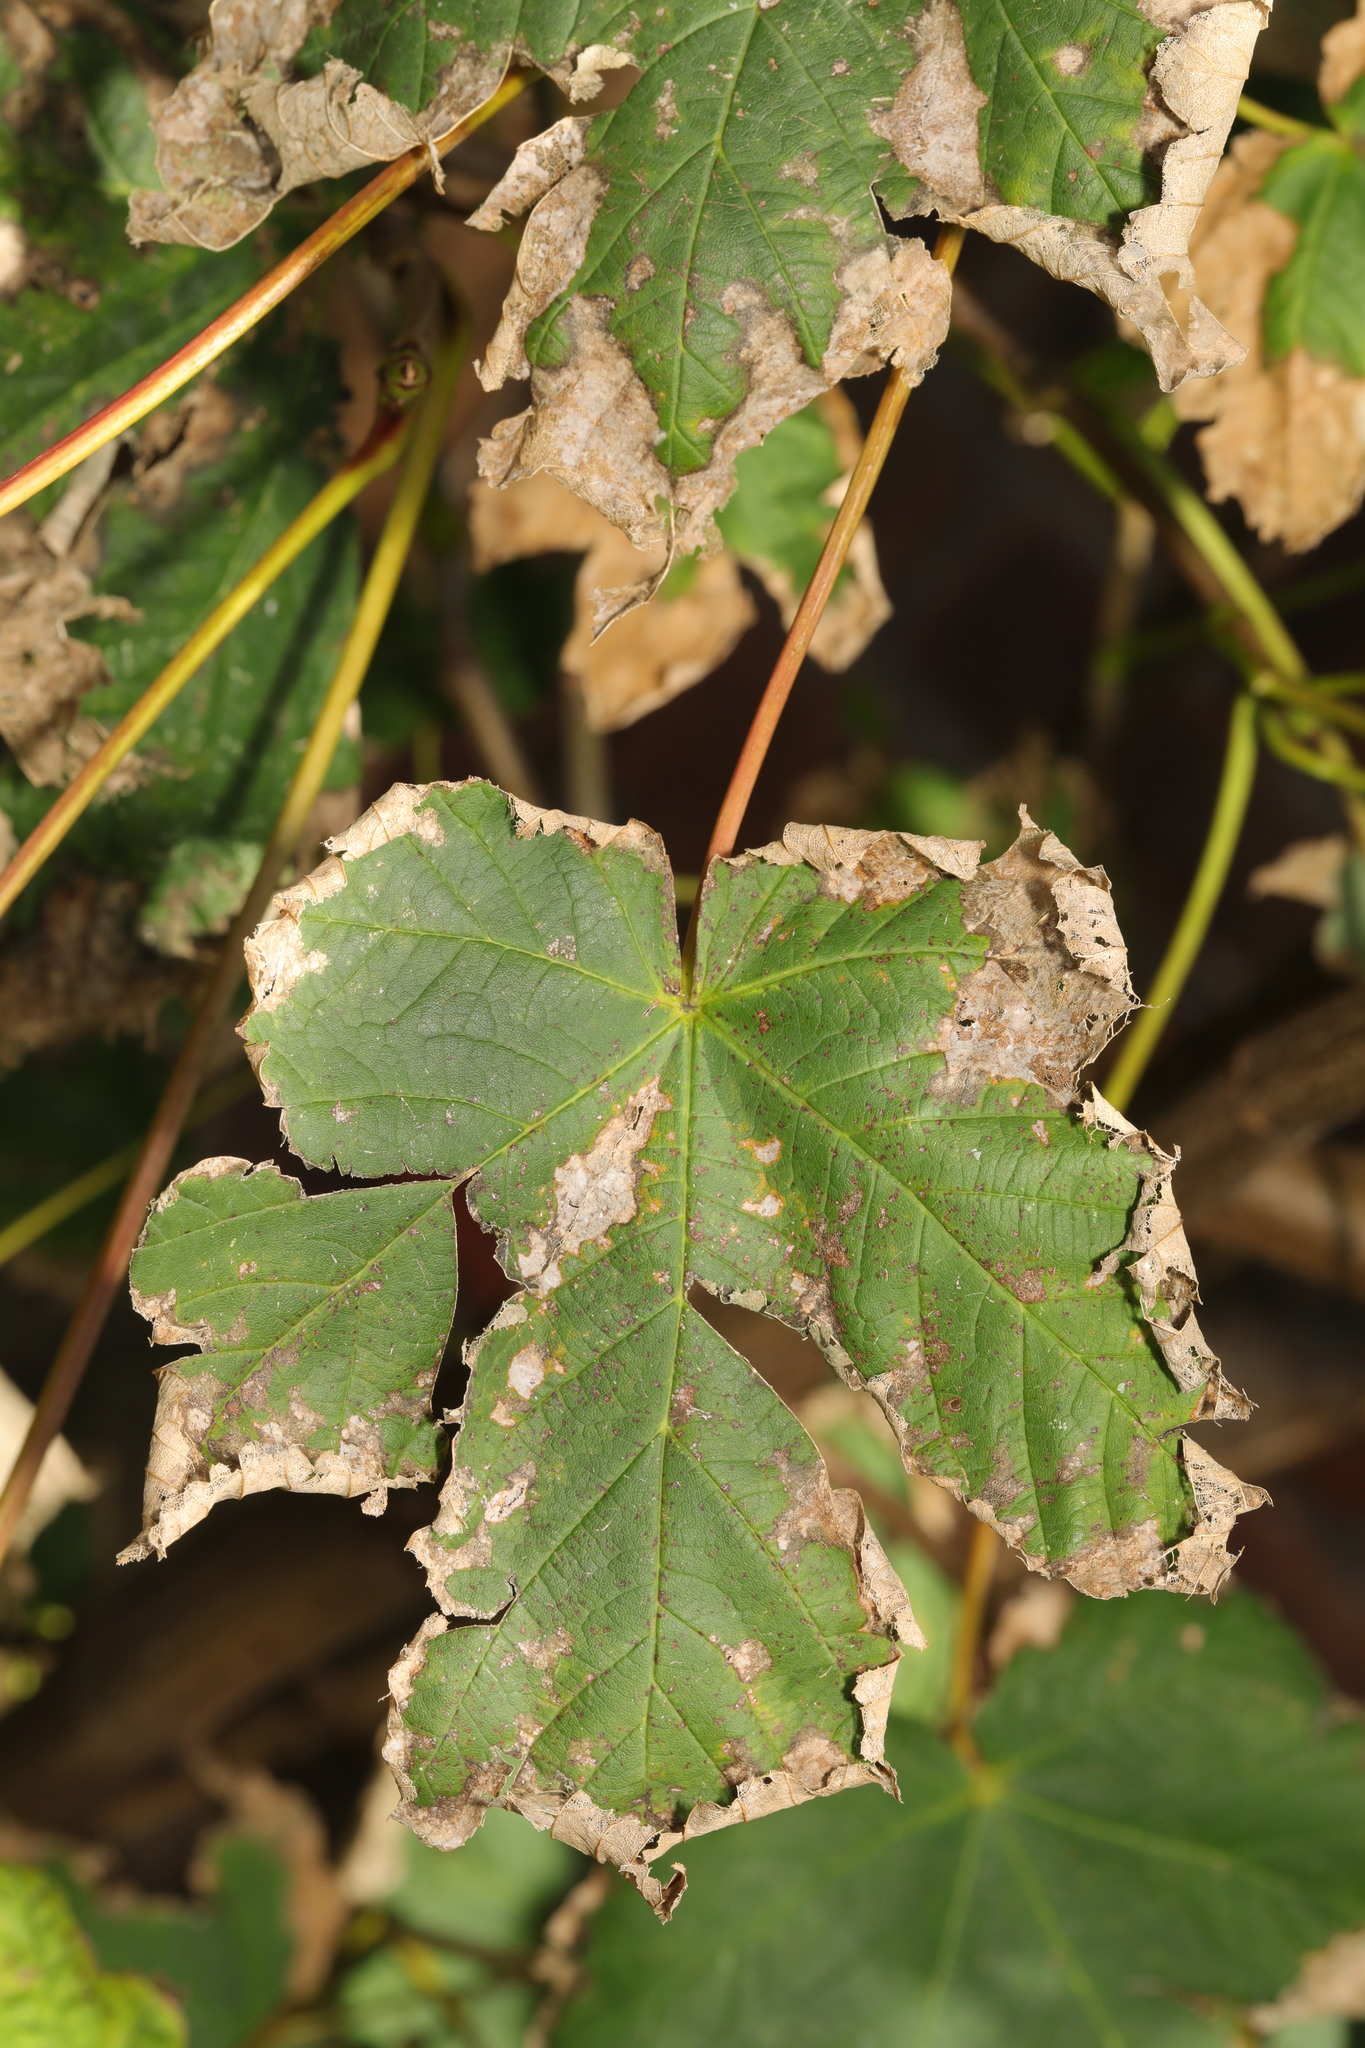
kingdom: Plantae
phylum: Tracheophyta
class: Magnoliopsida
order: Sapindales
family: Sapindaceae
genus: Acer
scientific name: Acer pseudoplatanus
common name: Sycamore
